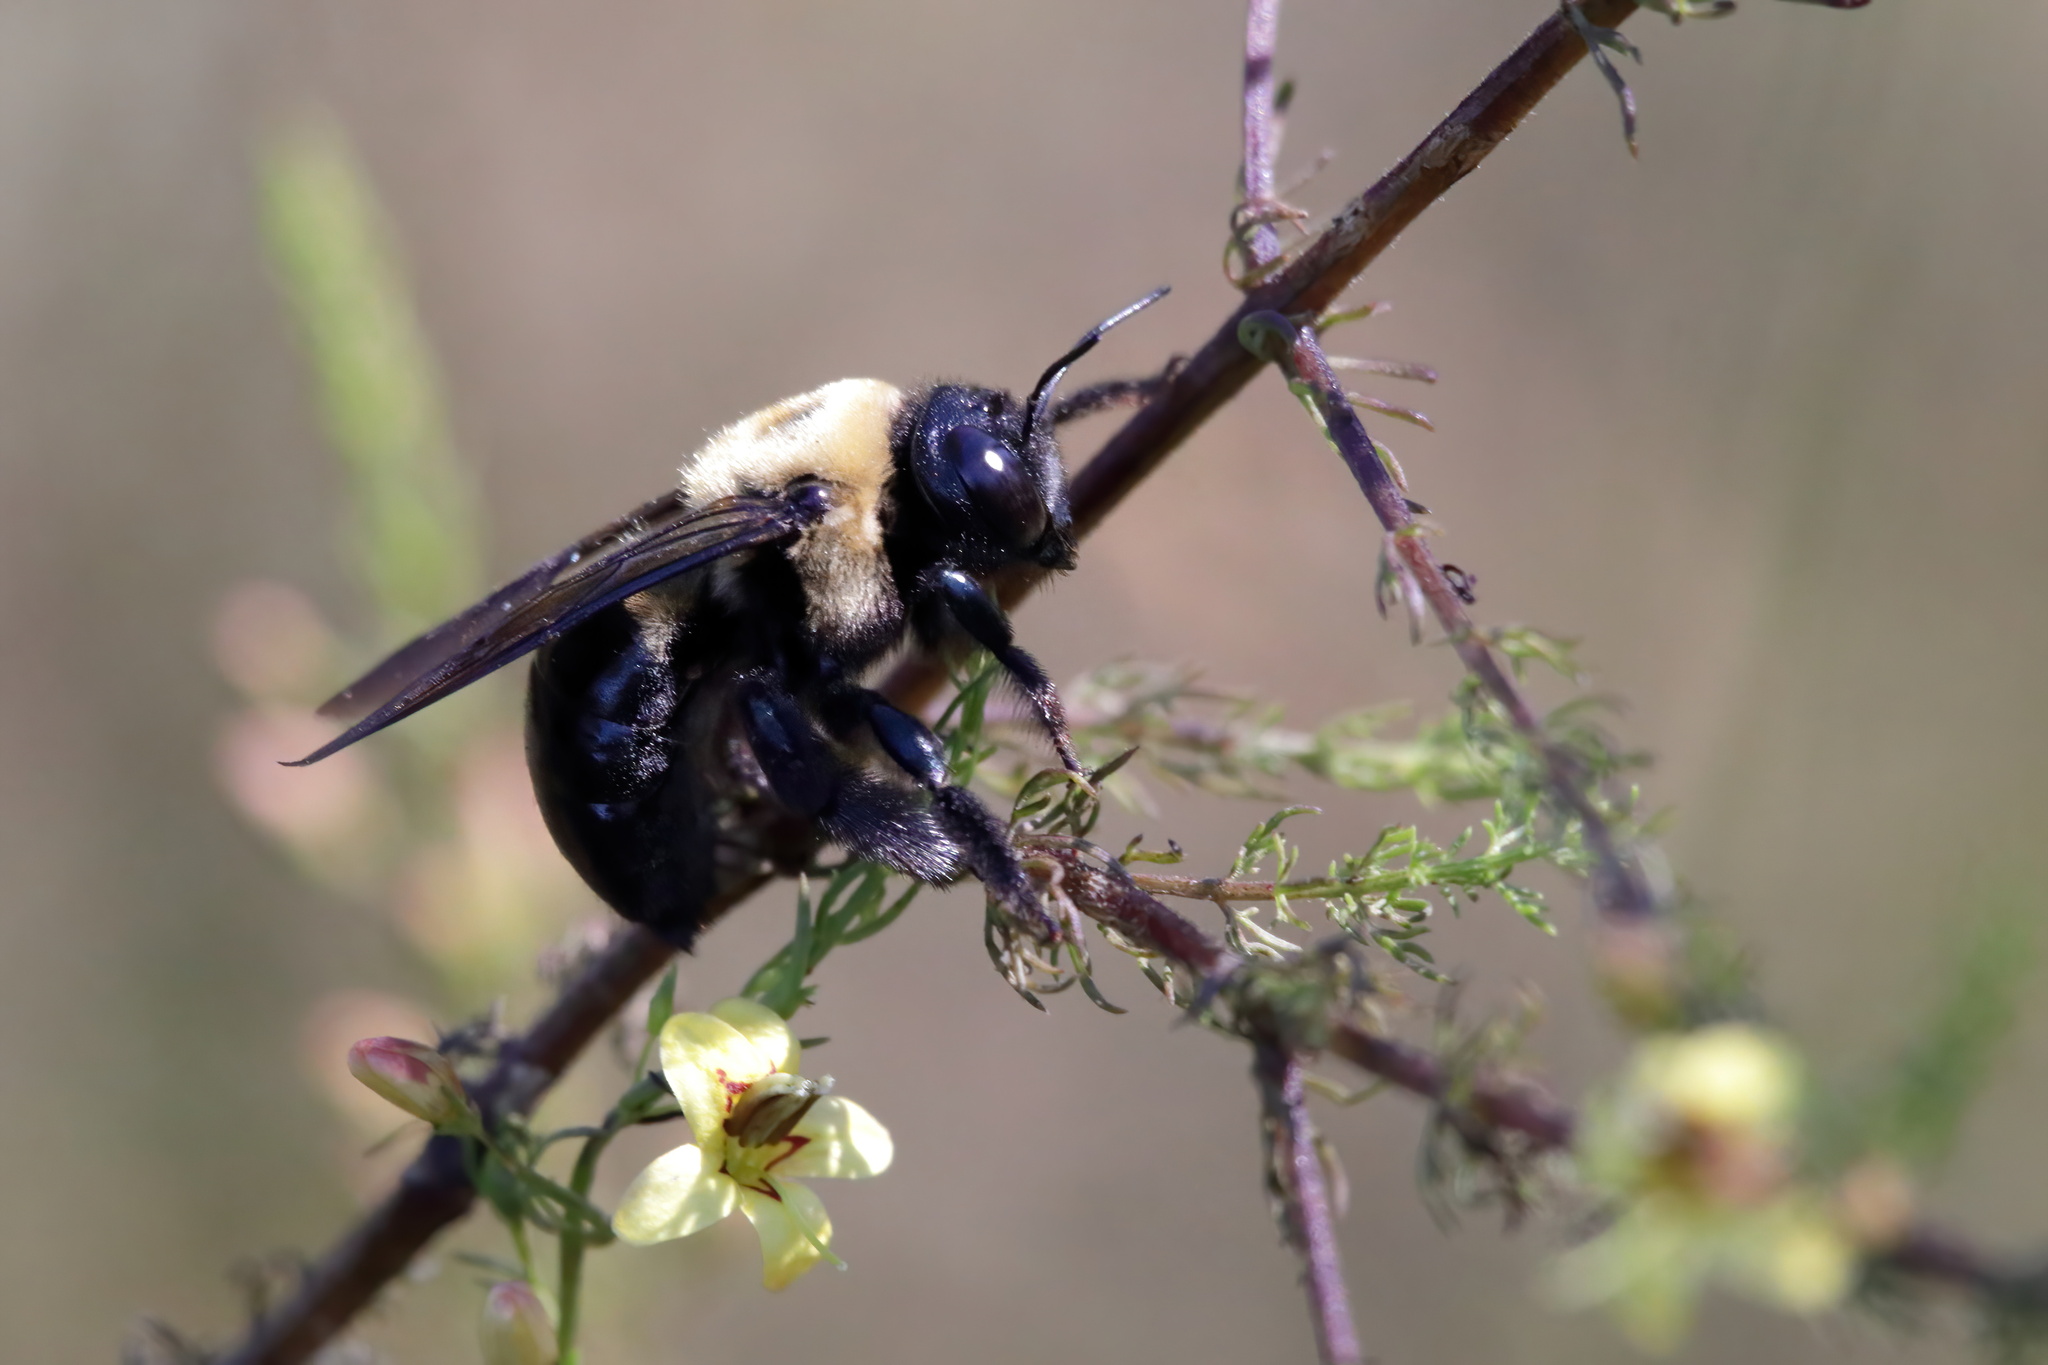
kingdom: Animalia
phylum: Arthropoda
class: Insecta
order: Hymenoptera
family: Apidae
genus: Xylocopa
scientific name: Xylocopa virginica
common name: Carpenter bee
